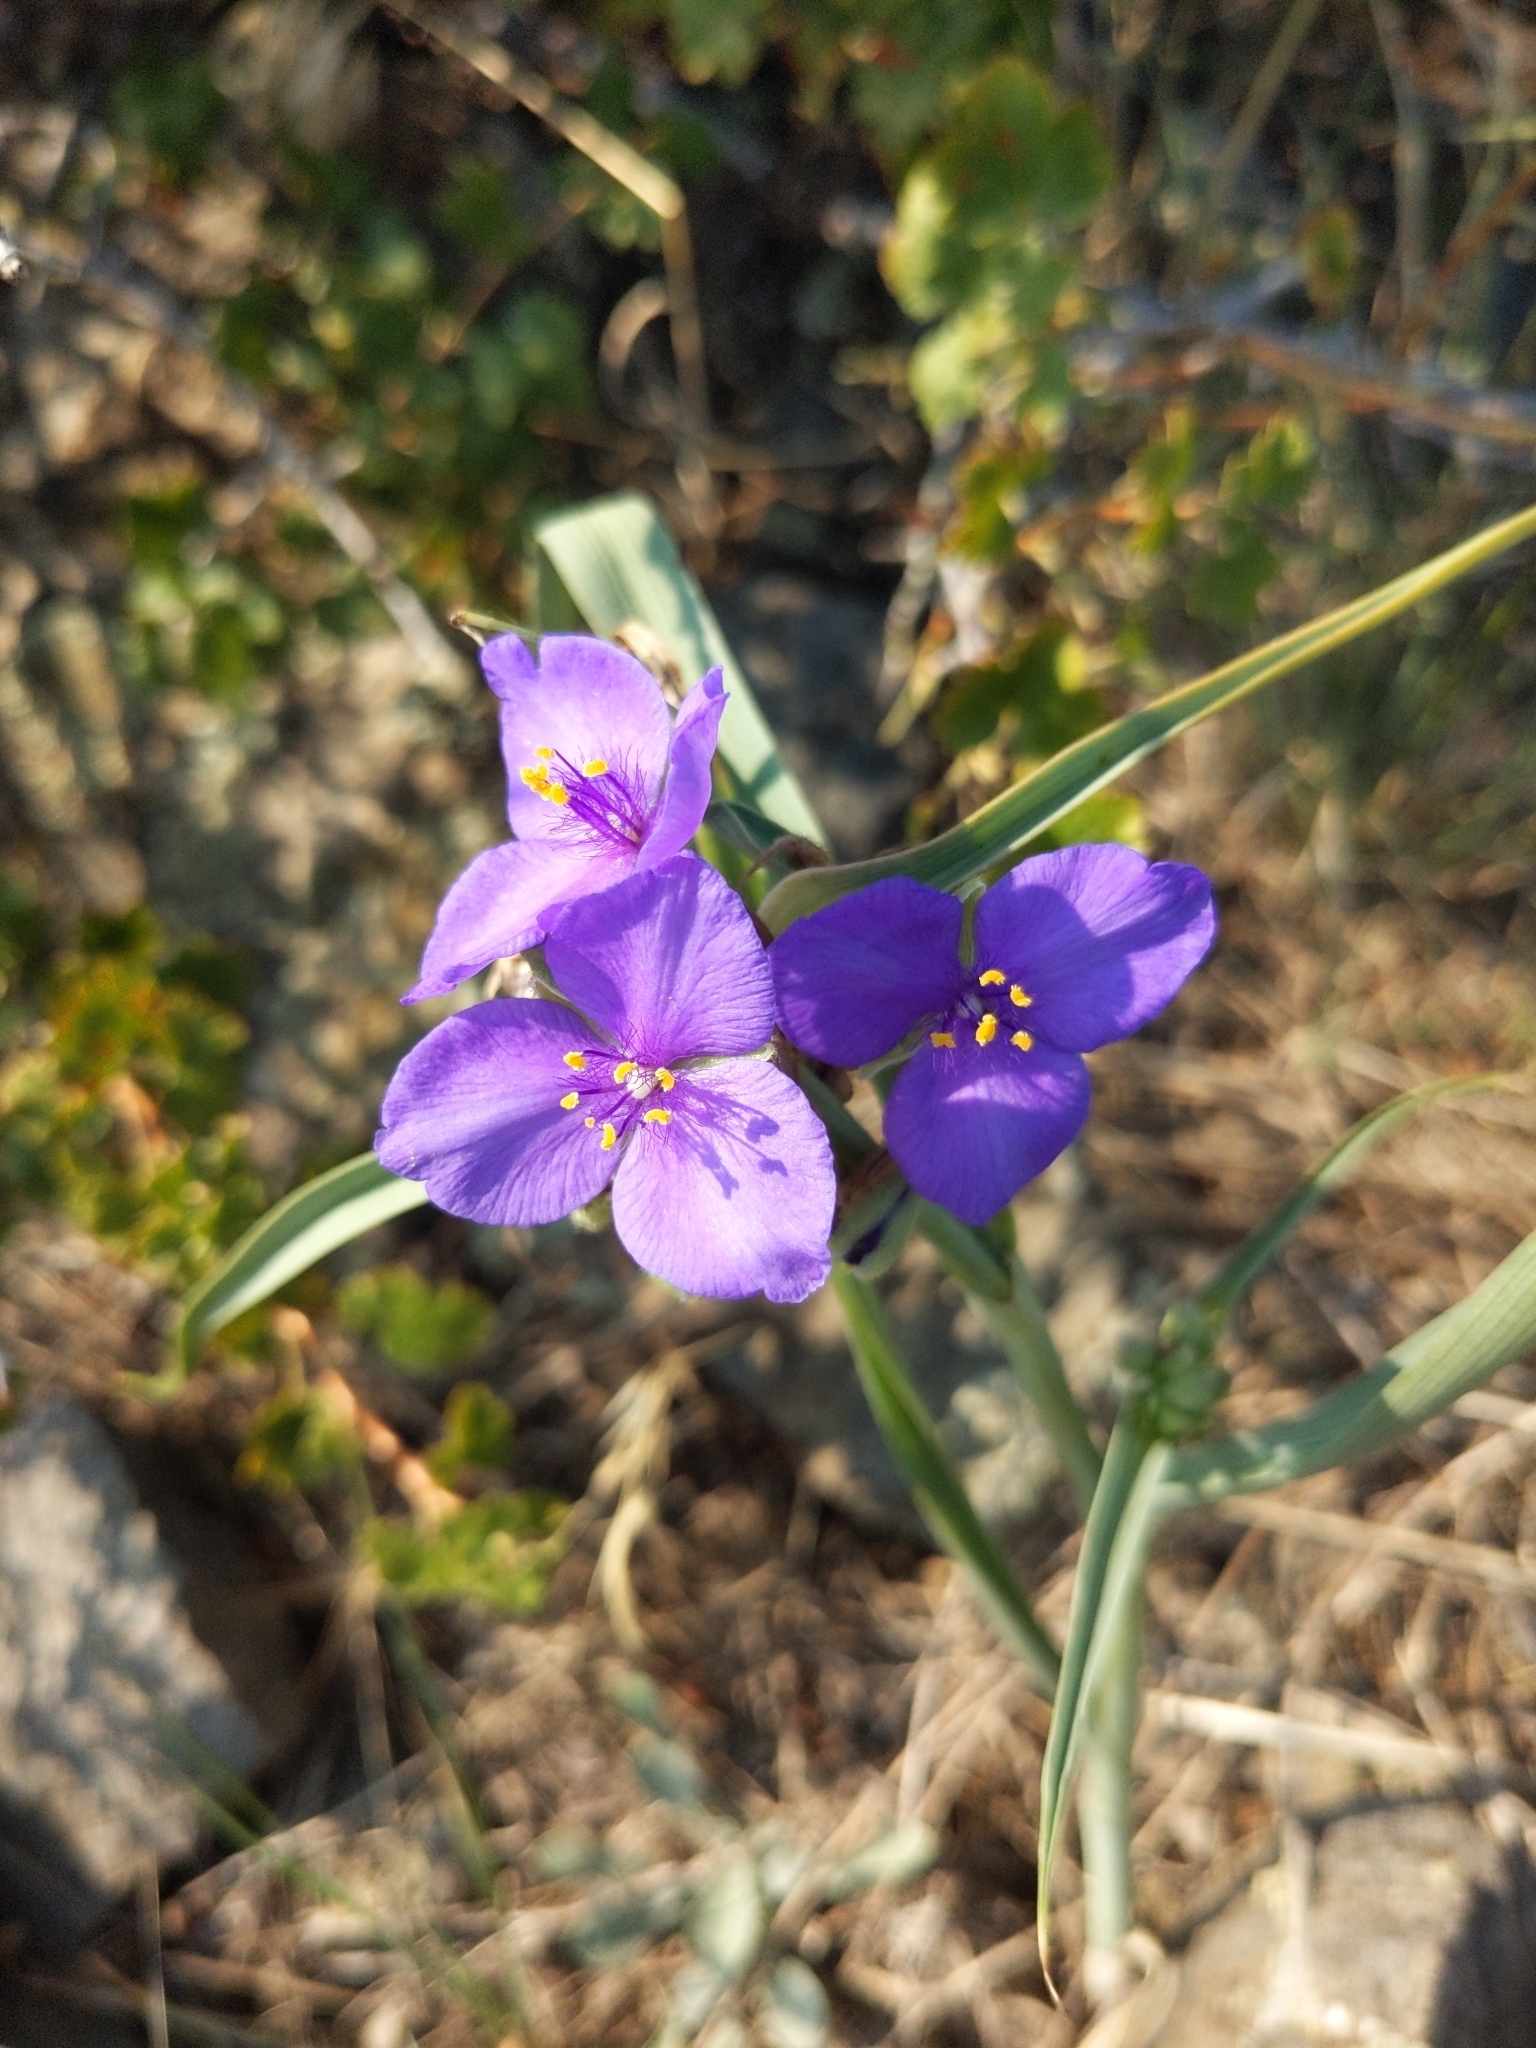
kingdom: Plantae
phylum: Tracheophyta
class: Liliopsida
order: Commelinales
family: Commelinaceae
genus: Tradescantia
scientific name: Tradescantia occidentalis
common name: Prairie spiderwort
